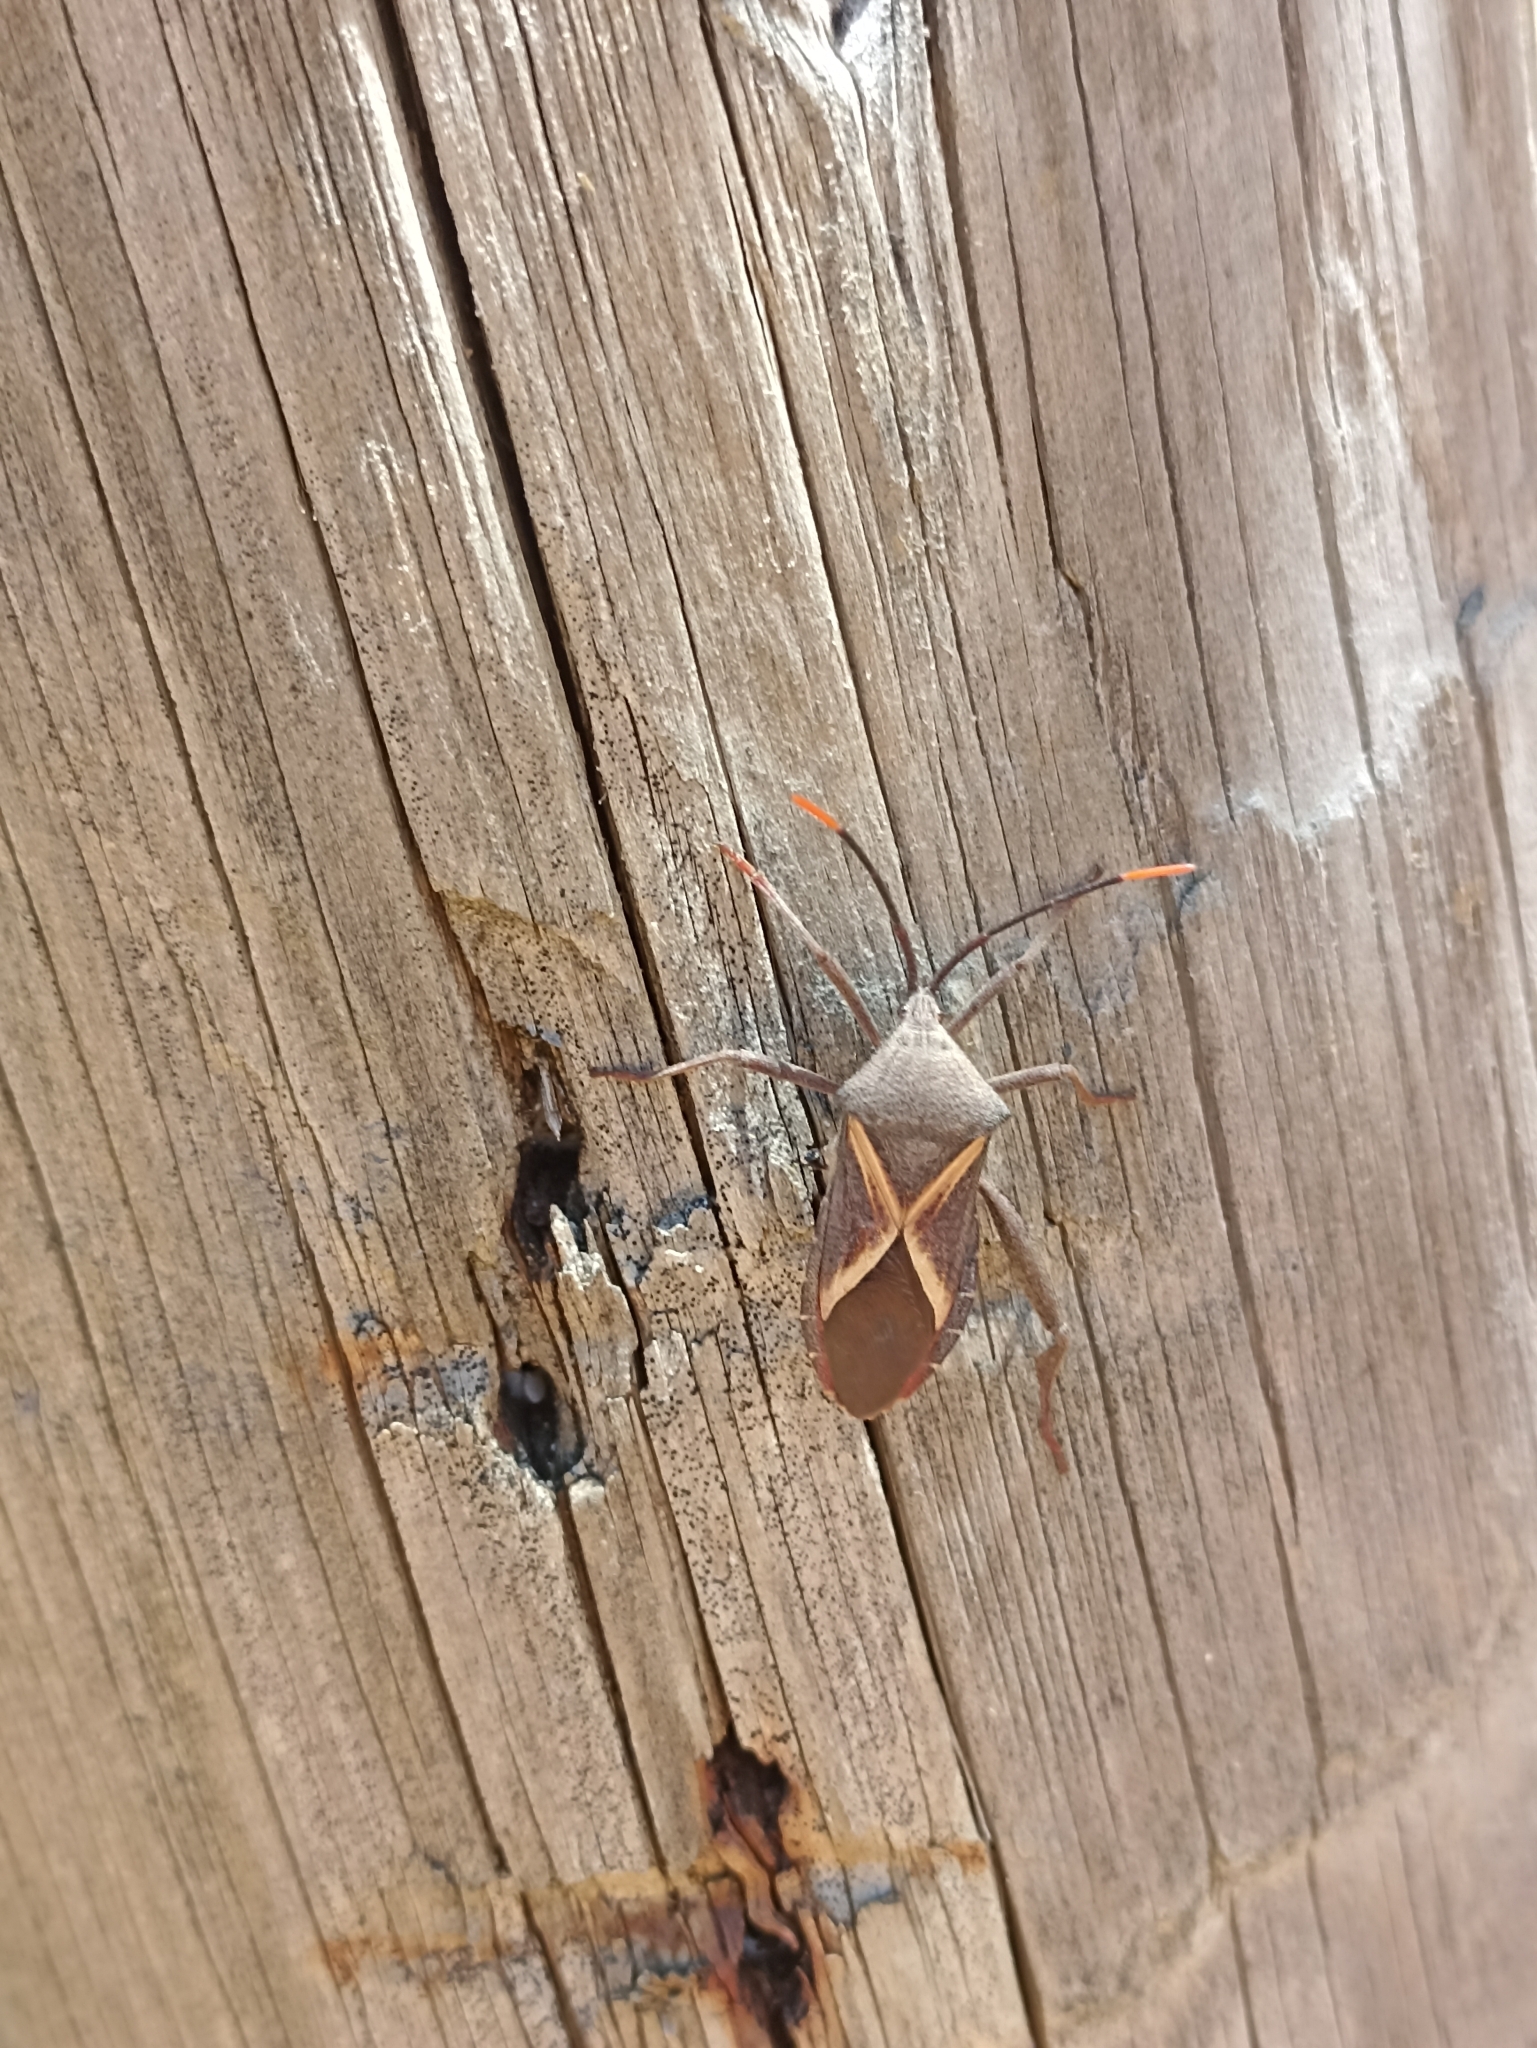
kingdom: Animalia
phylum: Arthropoda
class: Insecta
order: Hemiptera
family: Coreidae
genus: Mictis
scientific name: Mictis profana
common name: Crusader bug
